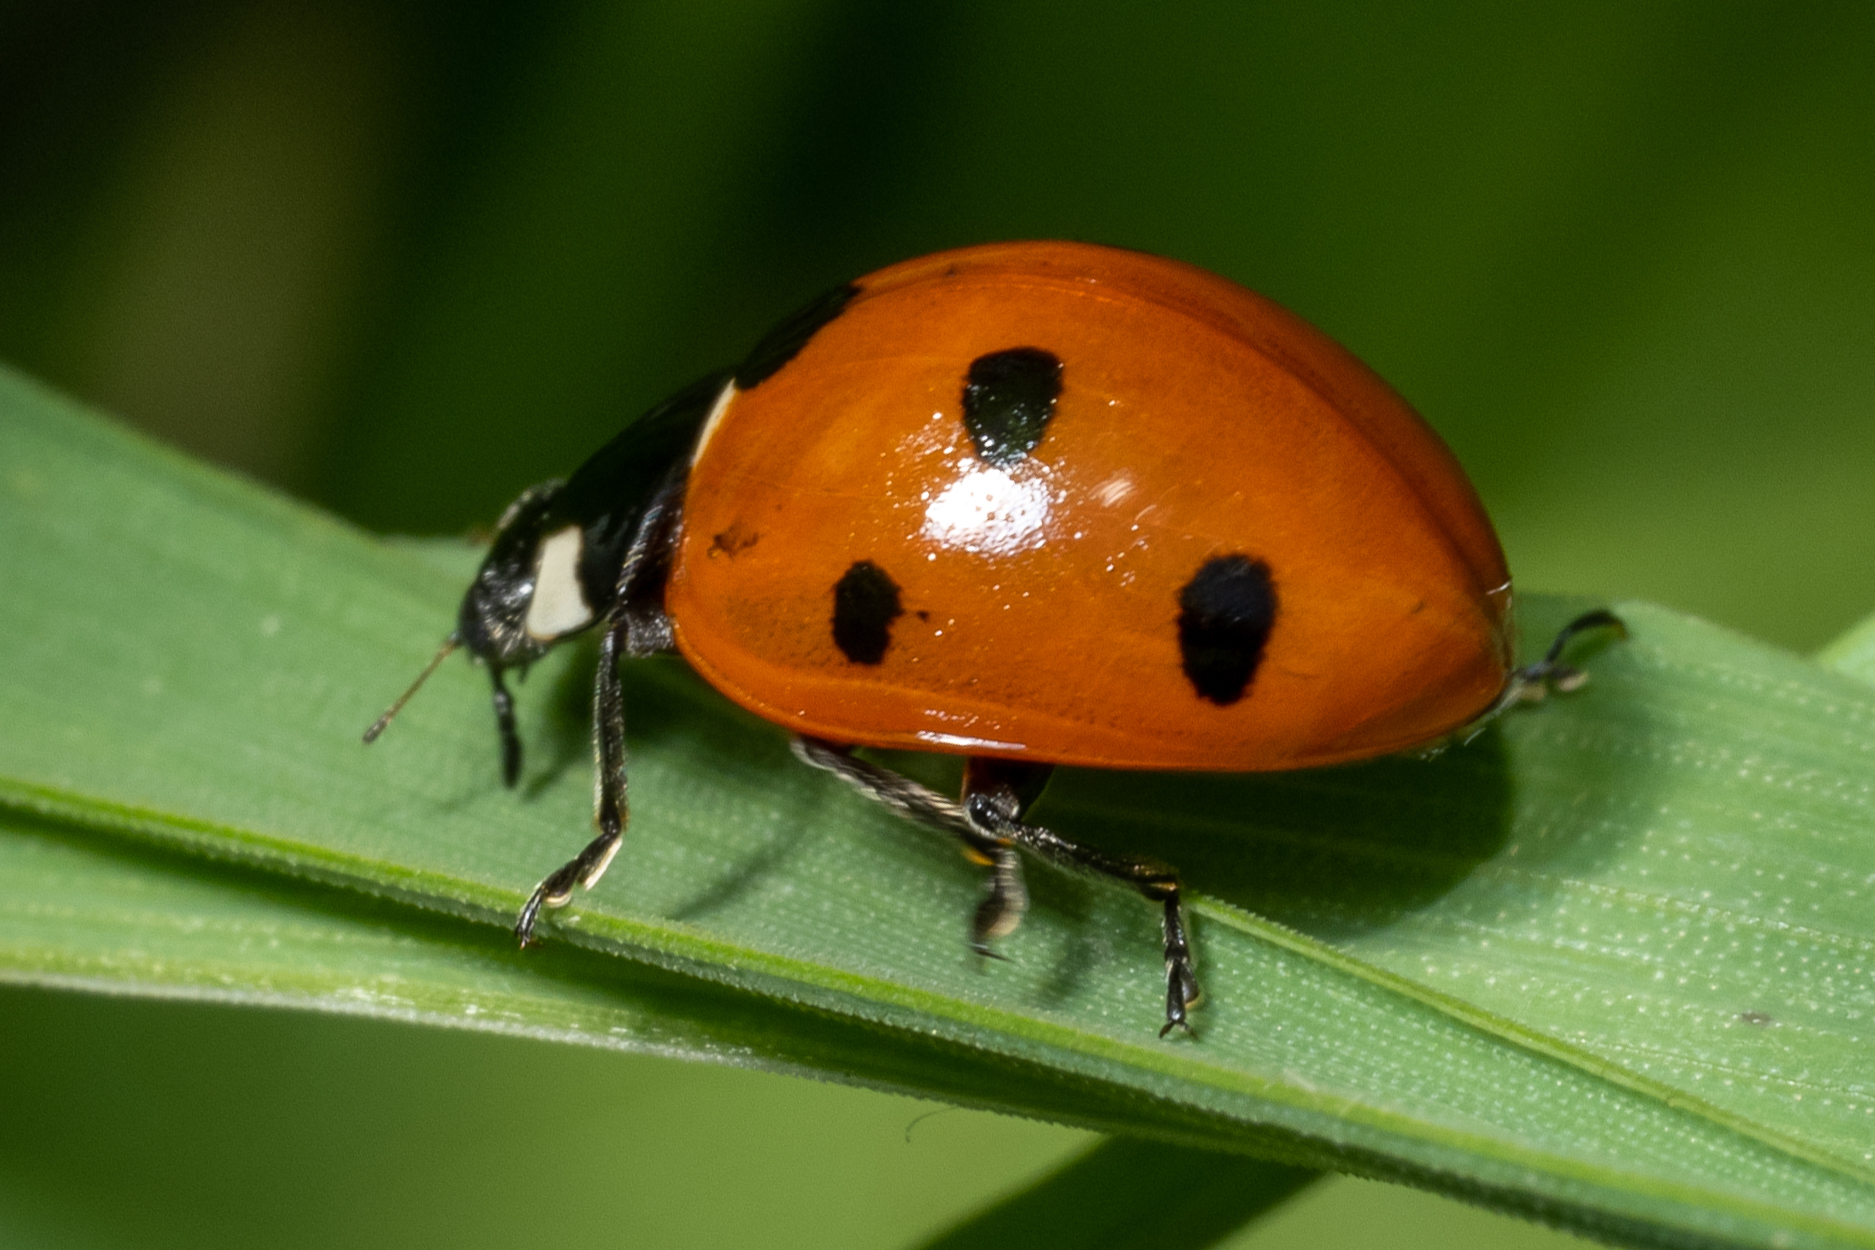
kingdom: Animalia
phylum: Arthropoda
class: Insecta
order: Coleoptera
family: Coccinellidae
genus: Coccinella
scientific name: Coccinella septempunctata
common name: Sevenspotted lady beetle
